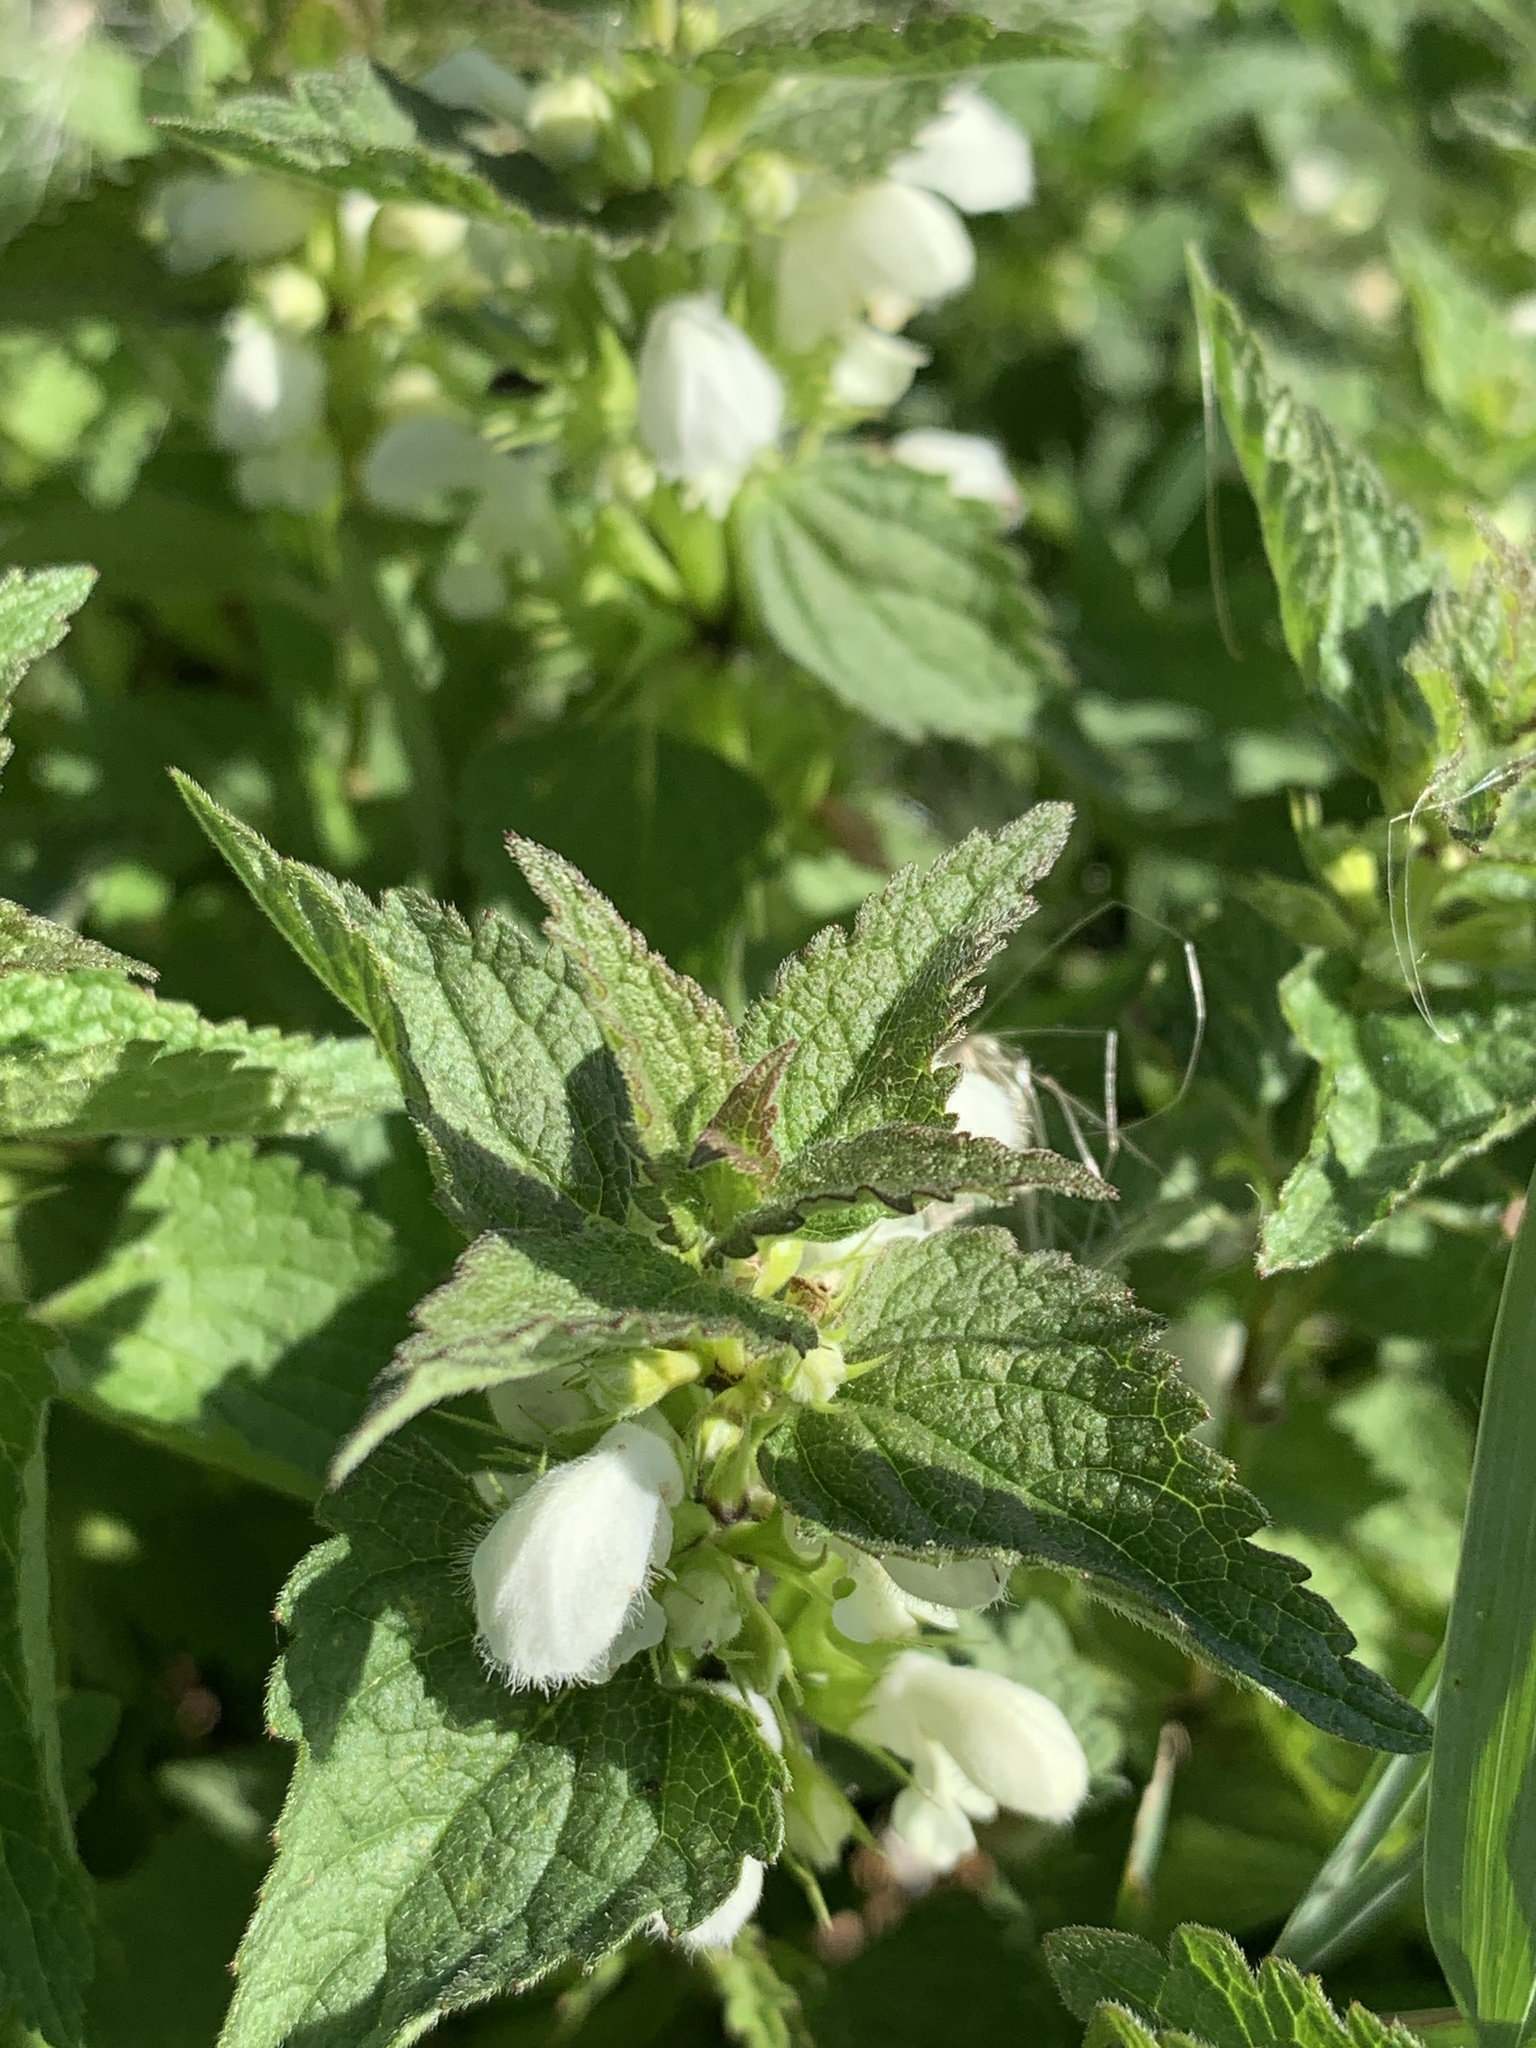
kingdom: Plantae
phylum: Tracheophyta
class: Magnoliopsida
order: Lamiales
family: Lamiaceae
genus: Lamium
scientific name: Lamium album
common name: White dead-nettle
